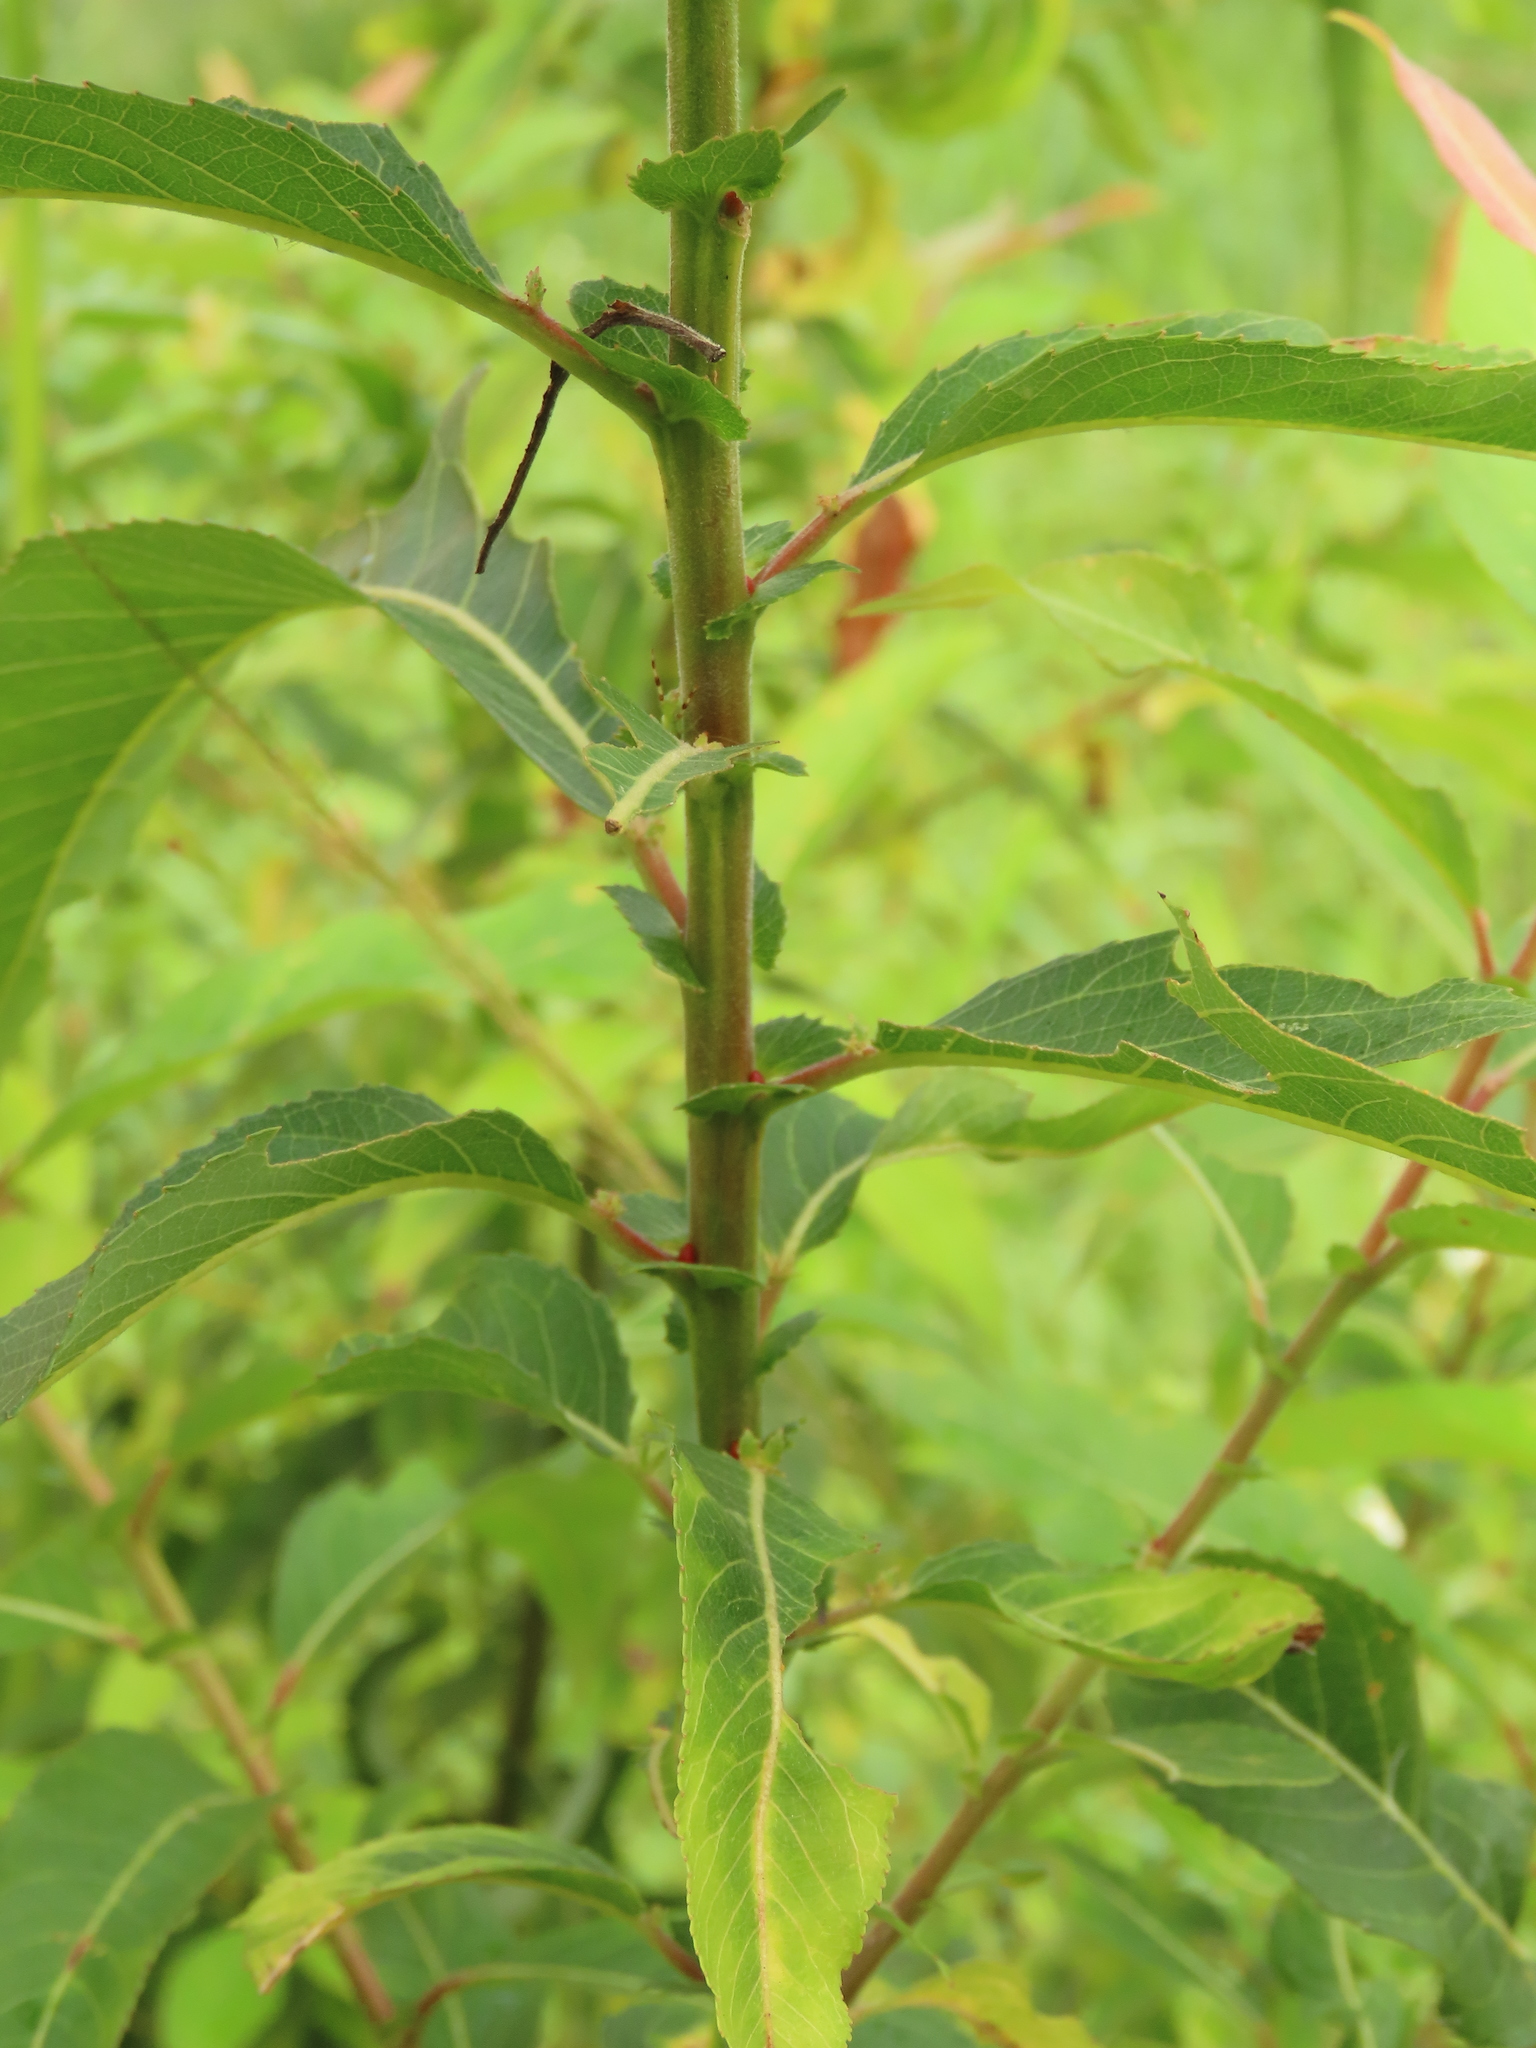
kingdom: Plantae
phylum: Tracheophyta
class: Magnoliopsida
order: Malpighiales
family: Salicaceae
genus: Salix
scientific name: Salix mesnyi
